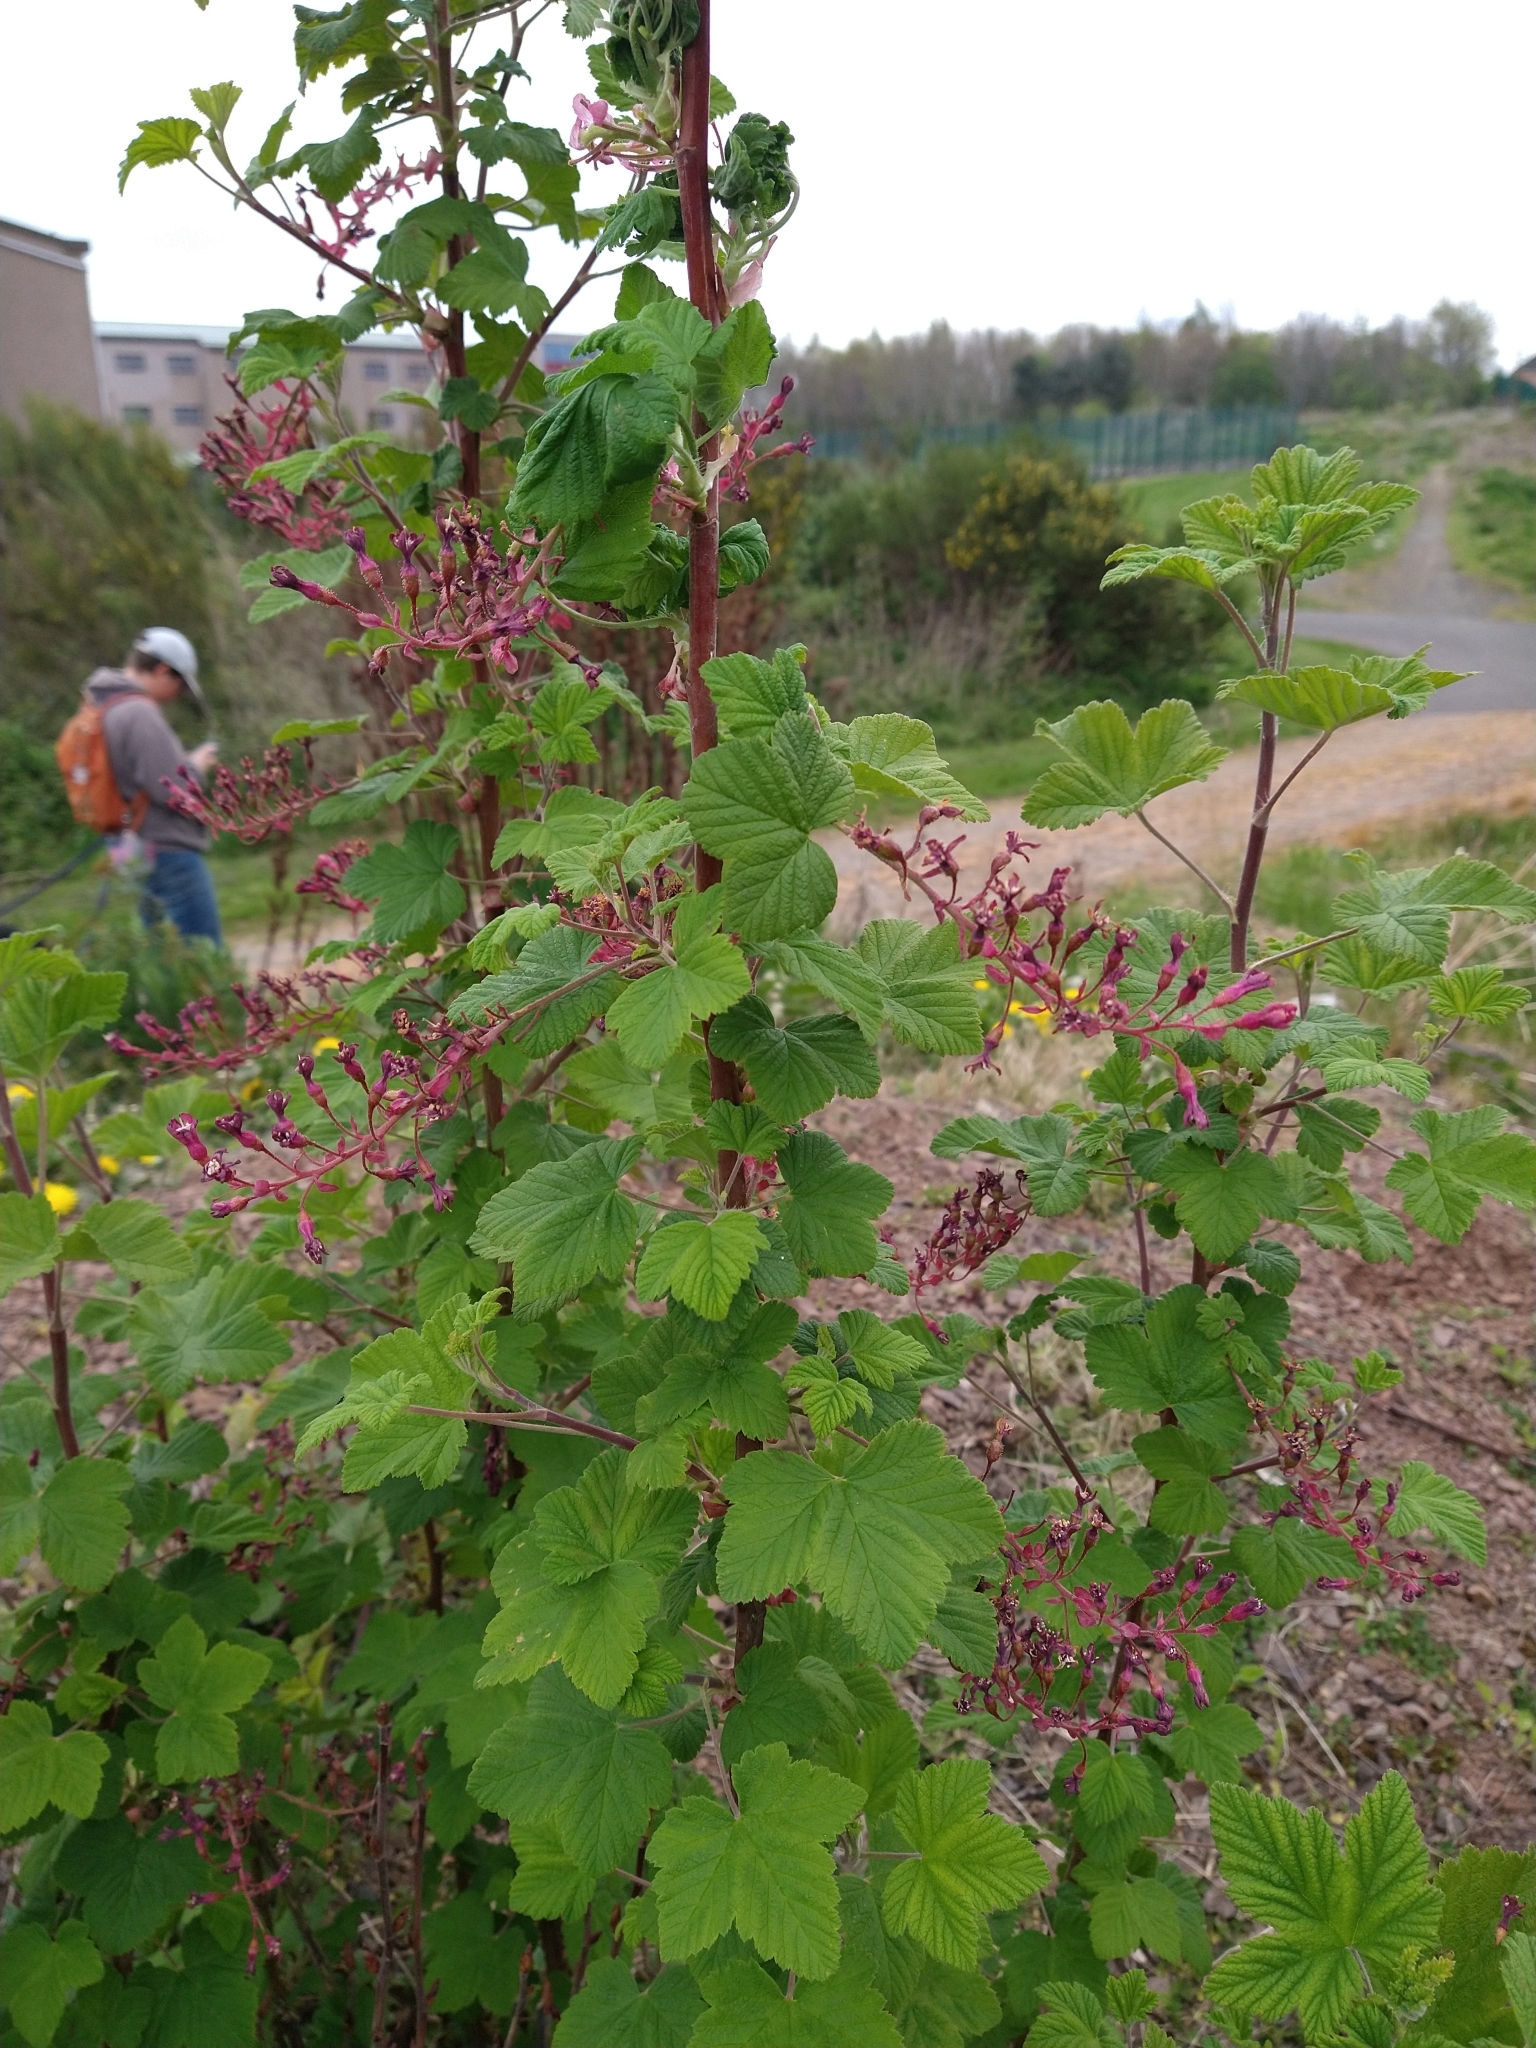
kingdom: Plantae
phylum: Tracheophyta
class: Magnoliopsida
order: Saxifragales
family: Grossulariaceae
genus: Ribes
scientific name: Ribes sanguineum
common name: Flowering currant
